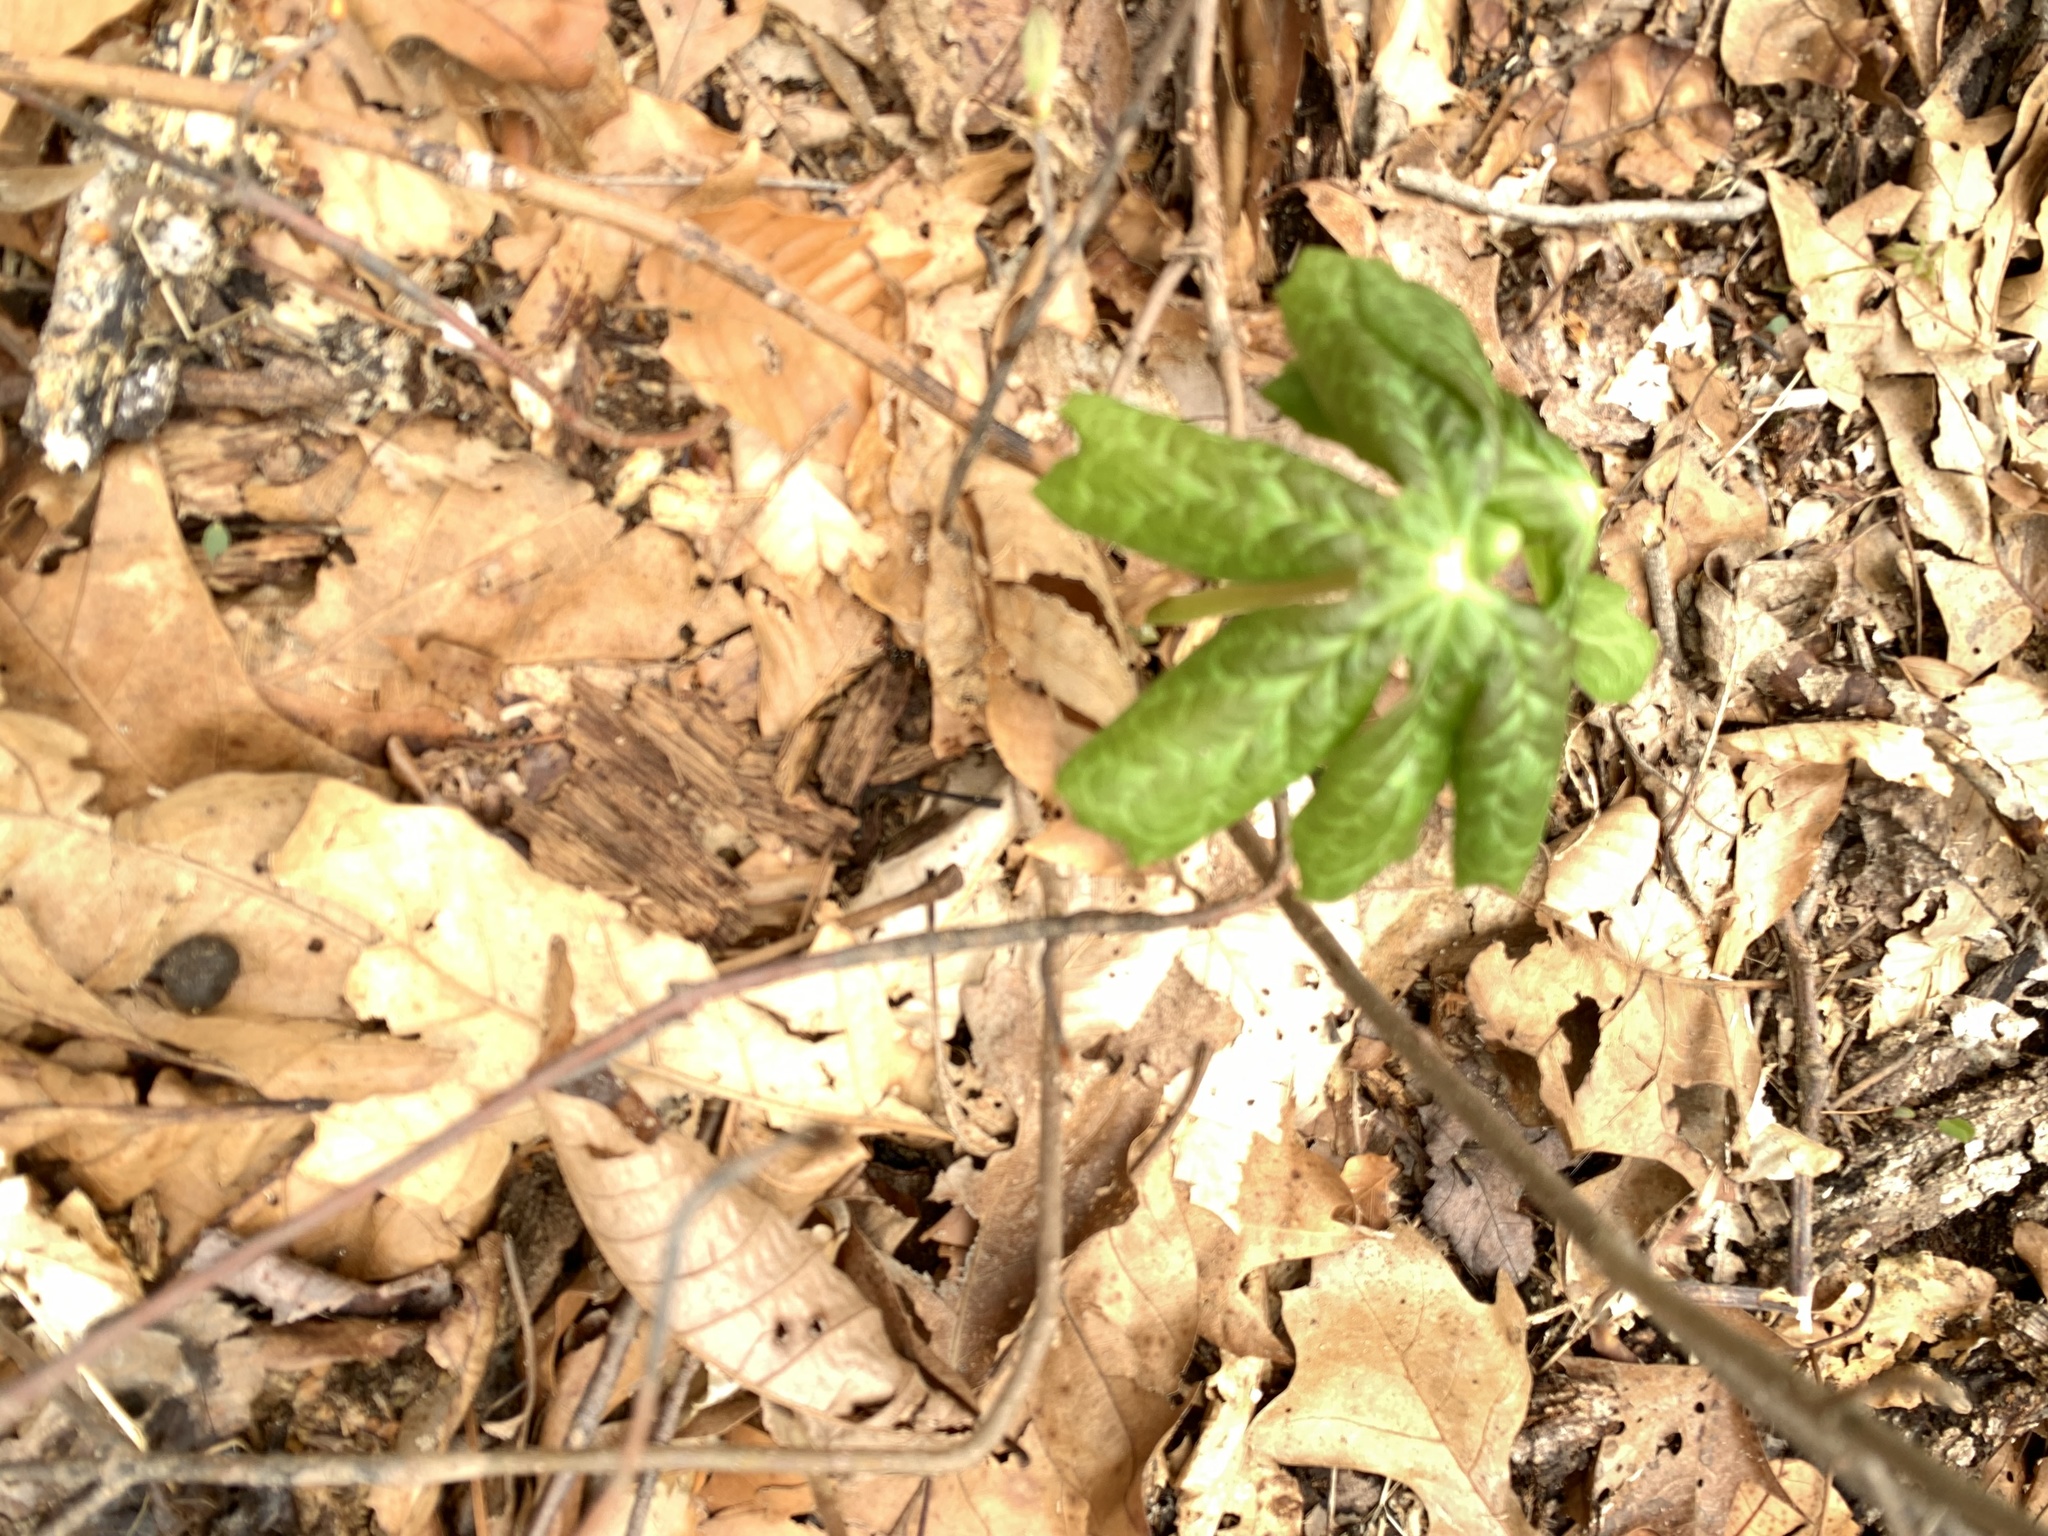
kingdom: Plantae
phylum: Tracheophyta
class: Magnoliopsida
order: Ranunculales
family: Berberidaceae
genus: Podophyllum
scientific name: Podophyllum peltatum
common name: Wild mandrake
